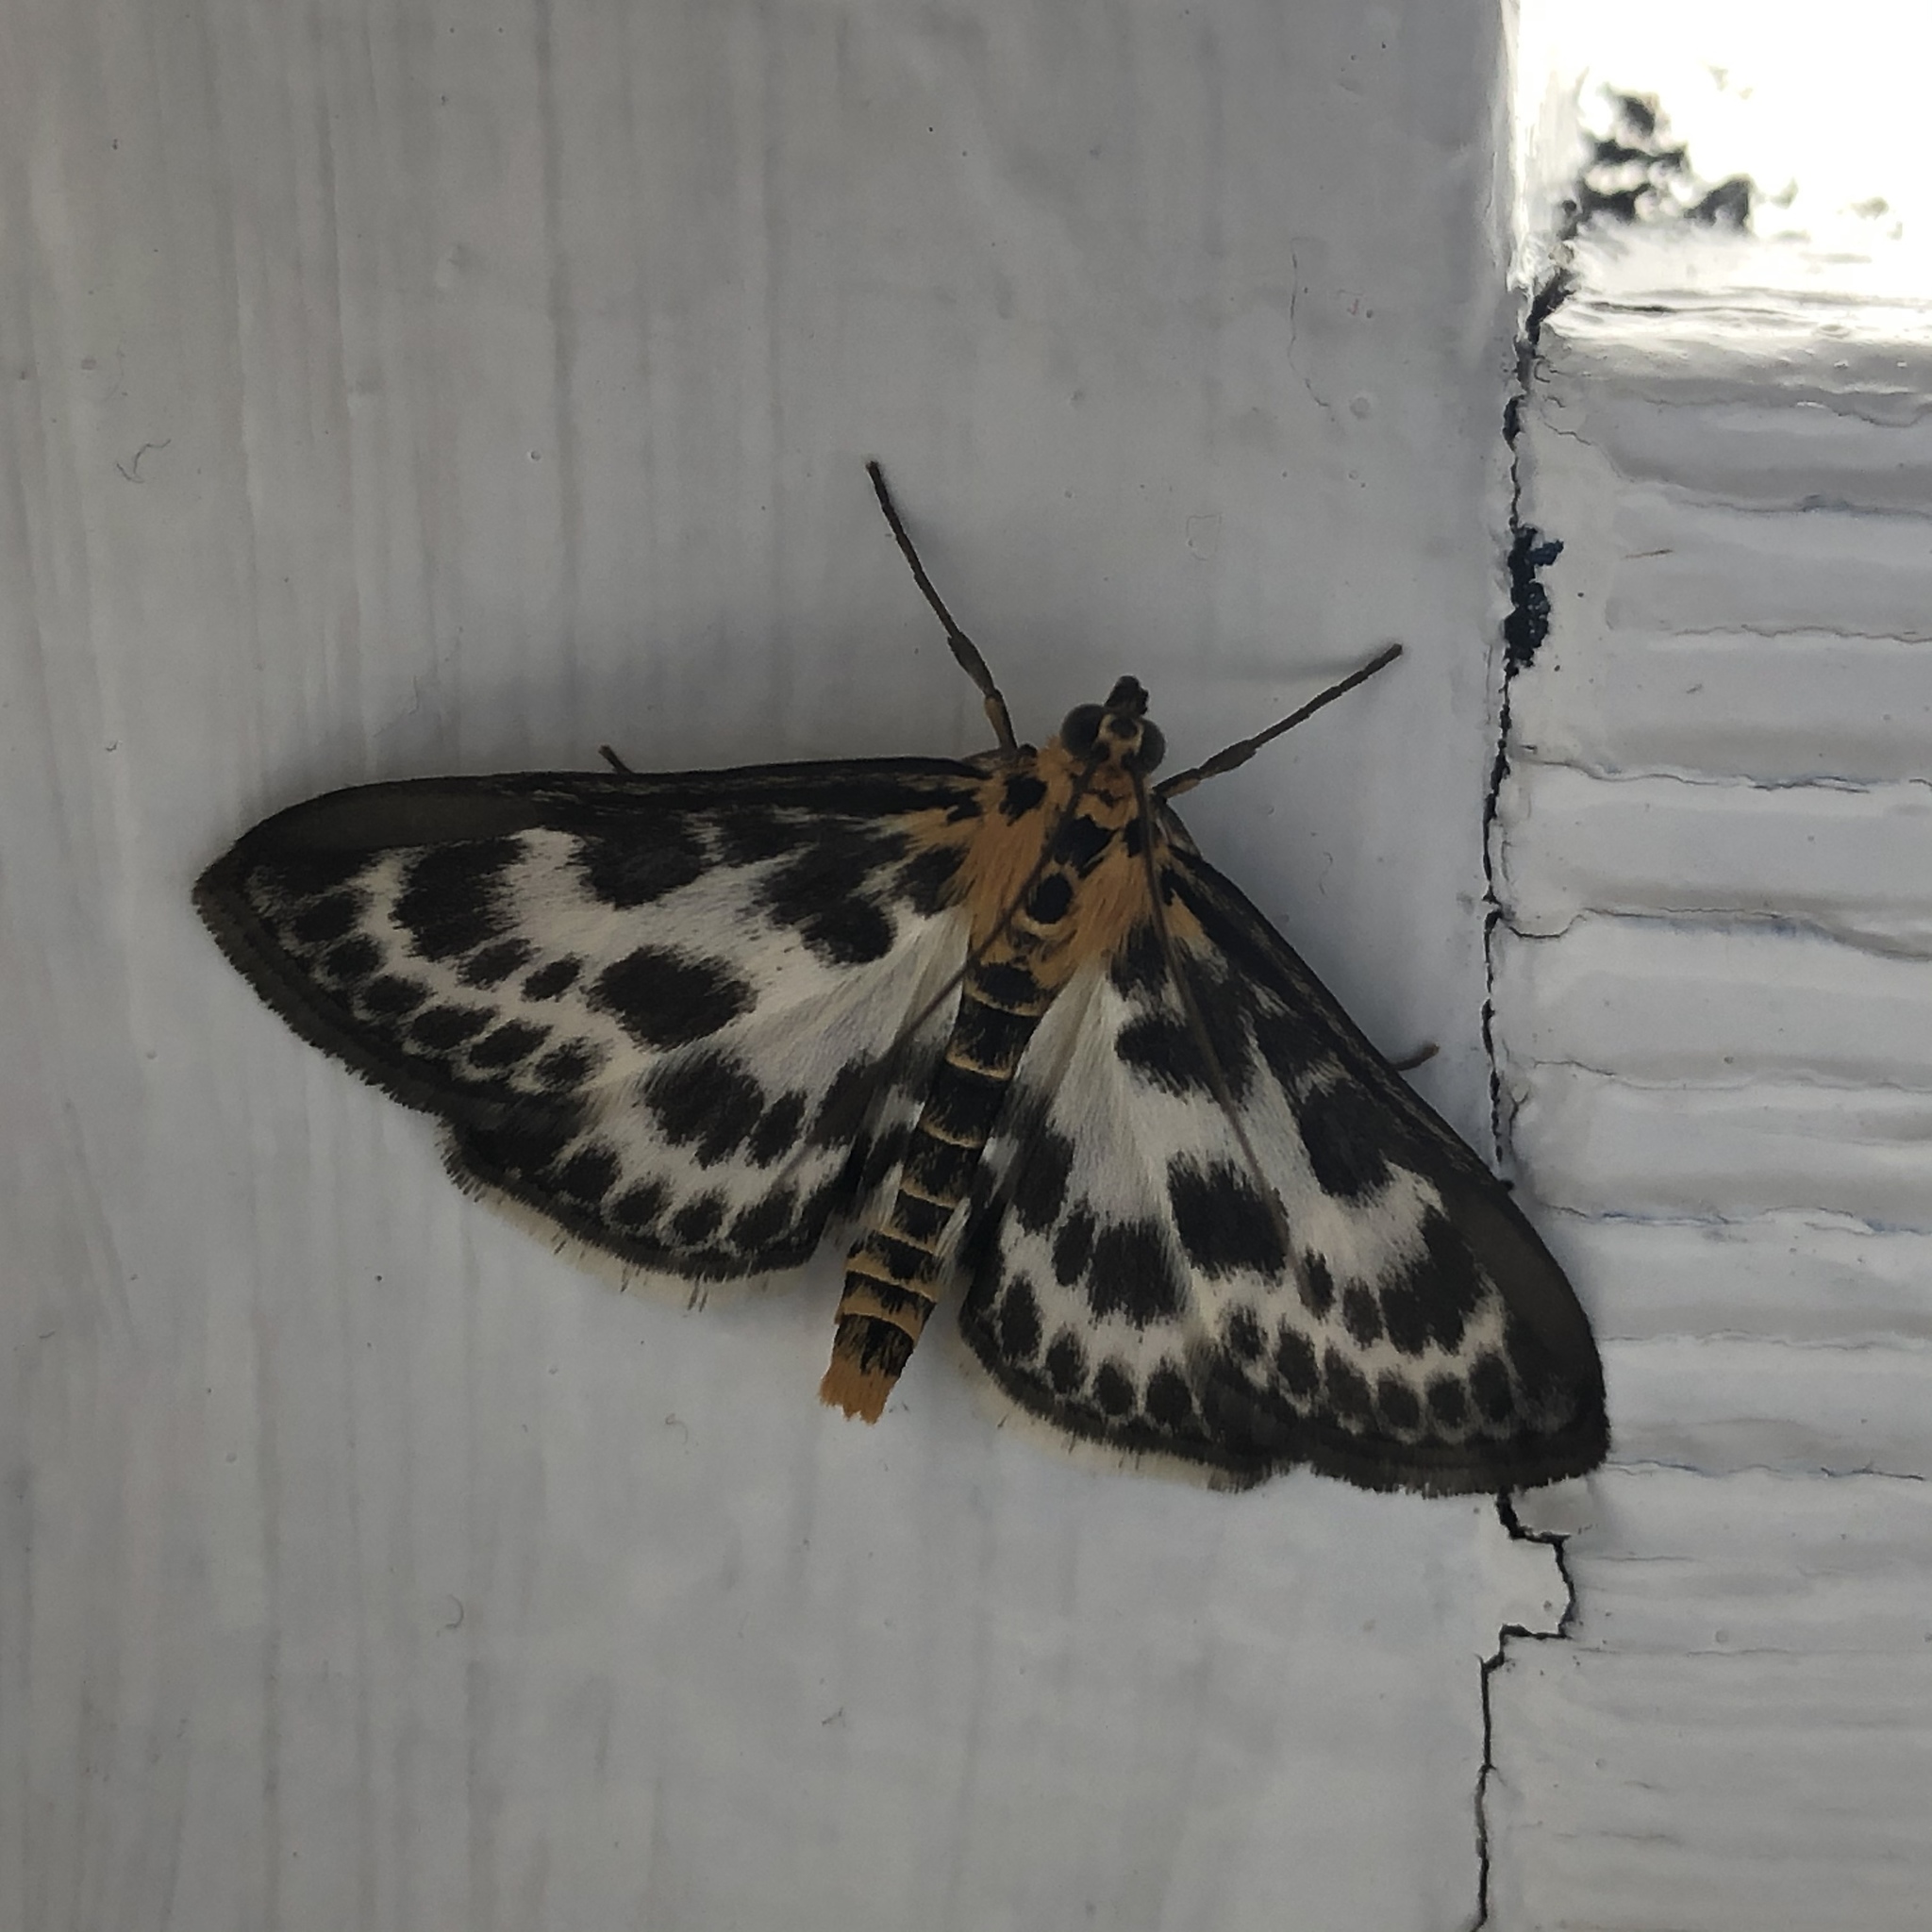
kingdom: Animalia
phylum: Arthropoda
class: Insecta
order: Lepidoptera
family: Crambidae
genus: Anania
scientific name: Anania hortulata
